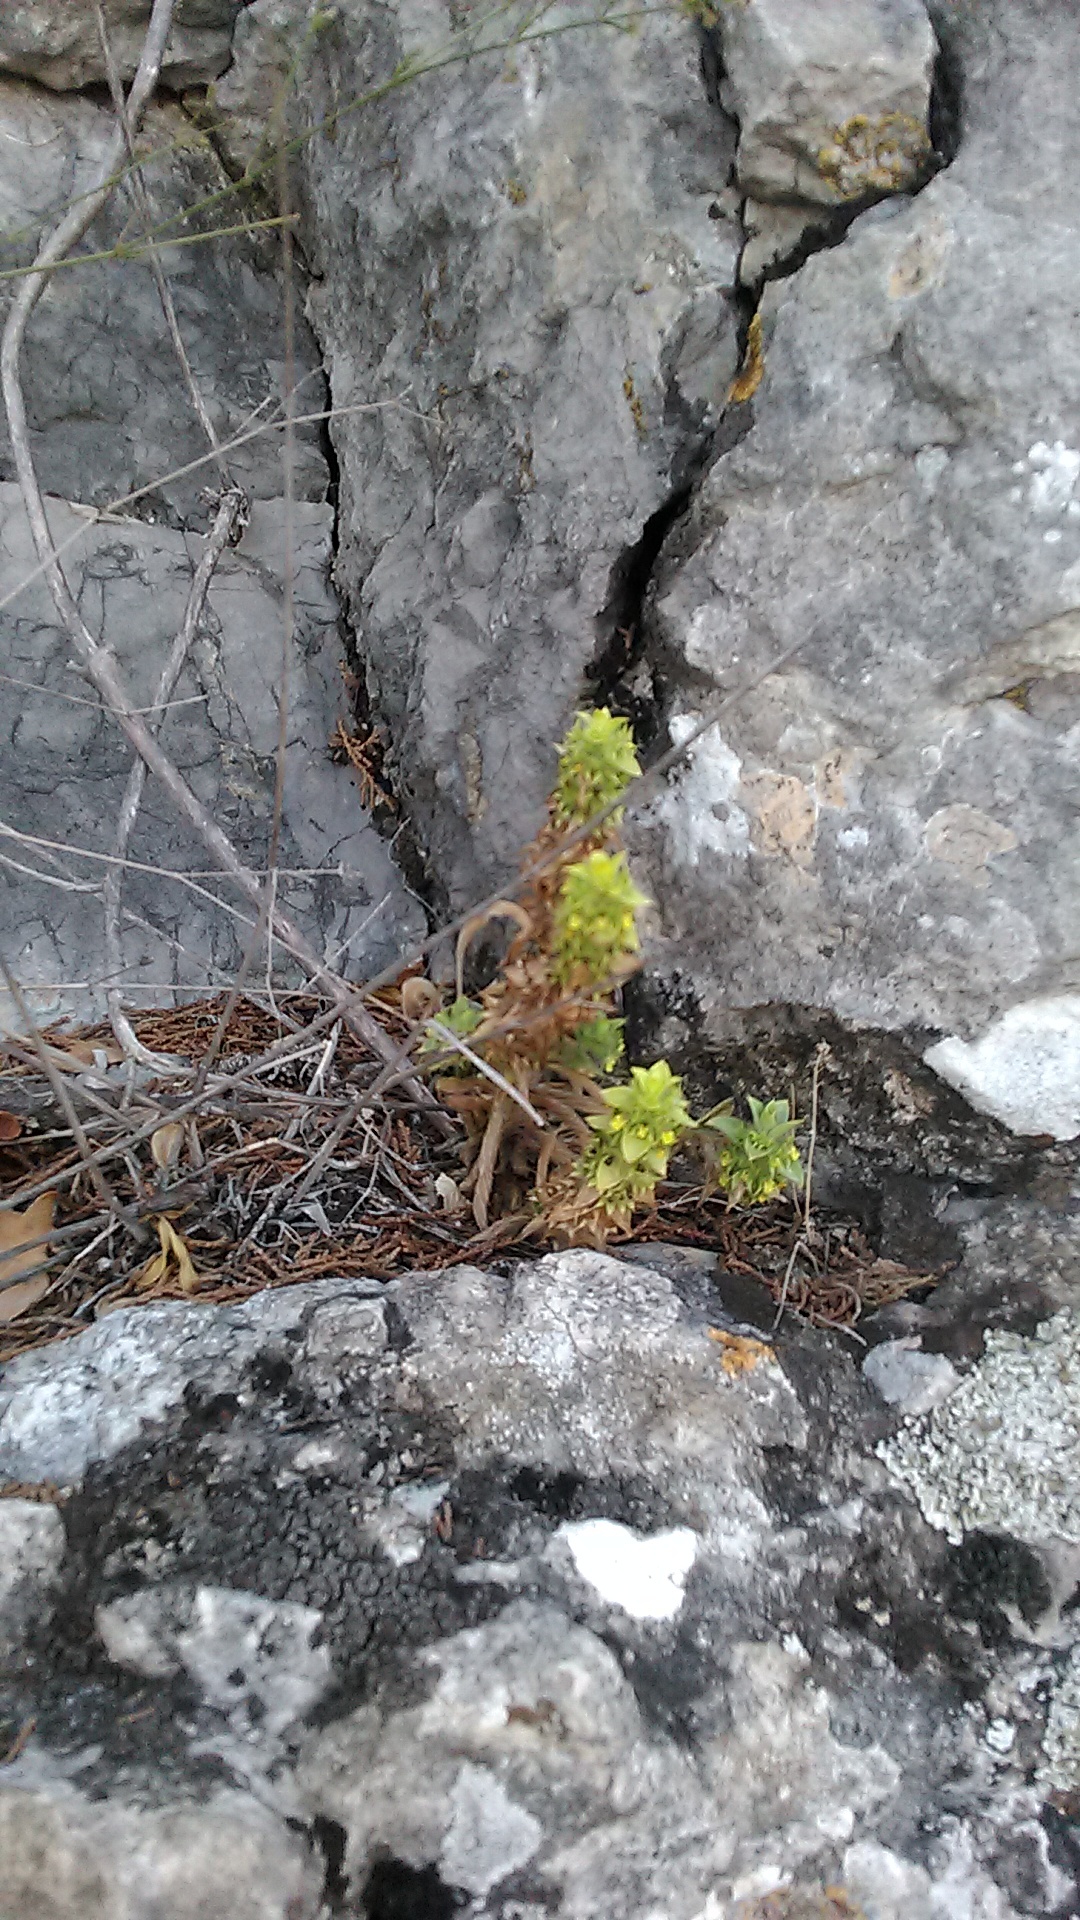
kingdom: Plantae
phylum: Tracheophyta
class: Magnoliopsida
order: Lamiales
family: Lamiaceae
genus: Sideritis
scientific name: Sideritis montana
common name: Mountain ironwort
